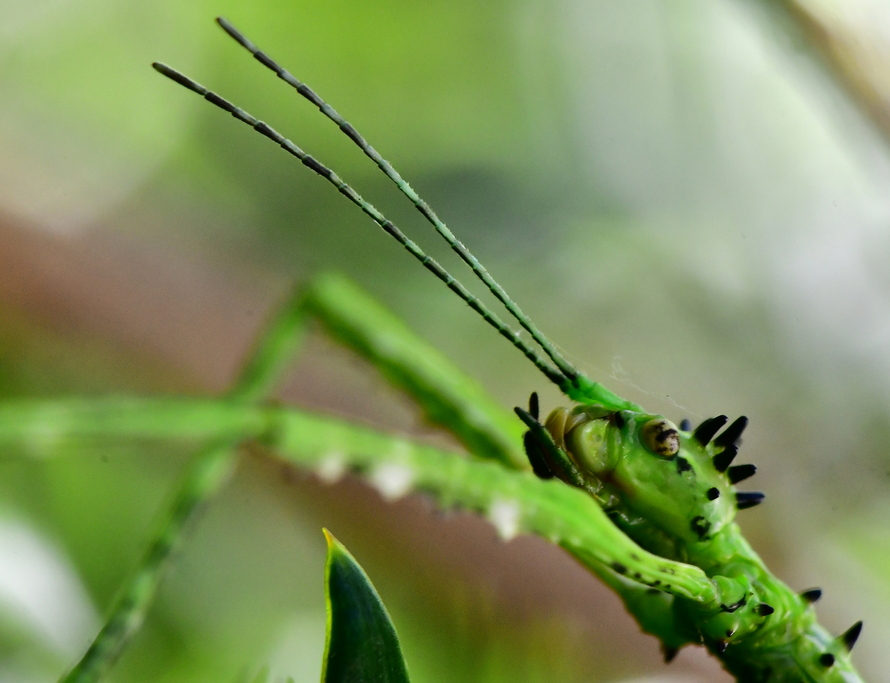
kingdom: Animalia
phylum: Arthropoda
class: Insecta
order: Phasmida
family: Phasmatidae
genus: Acanthoxyla
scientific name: Acanthoxyla prasina
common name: Black-spined stick insect
